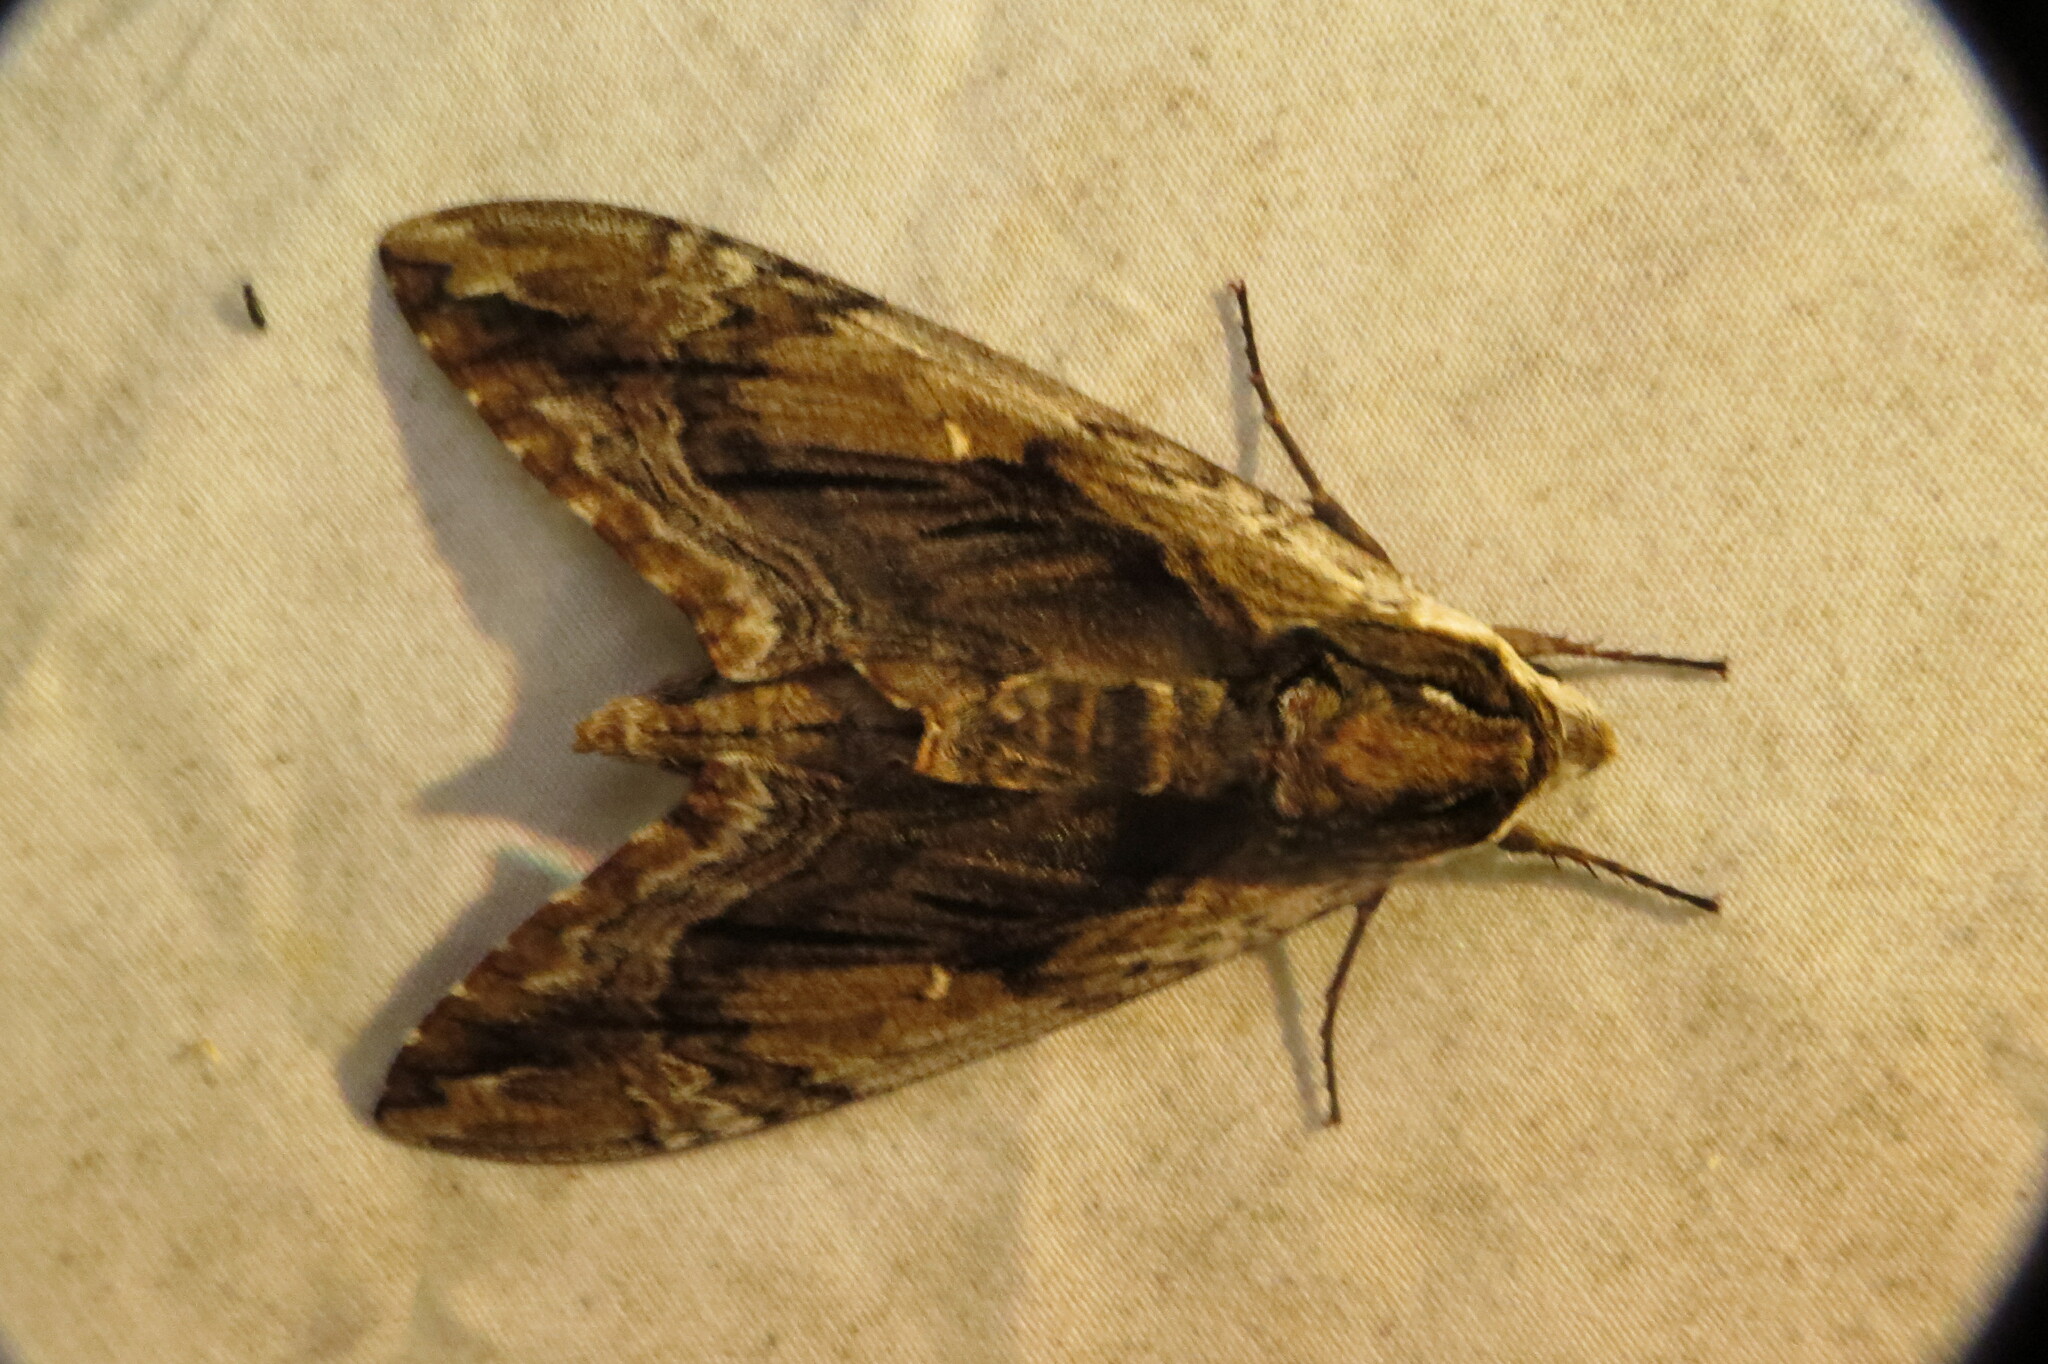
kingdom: Animalia
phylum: Arthropoda
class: Insecta
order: Lepidoptera
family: Sphingidae
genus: Ceratomia
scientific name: Ceratomia amyntor
